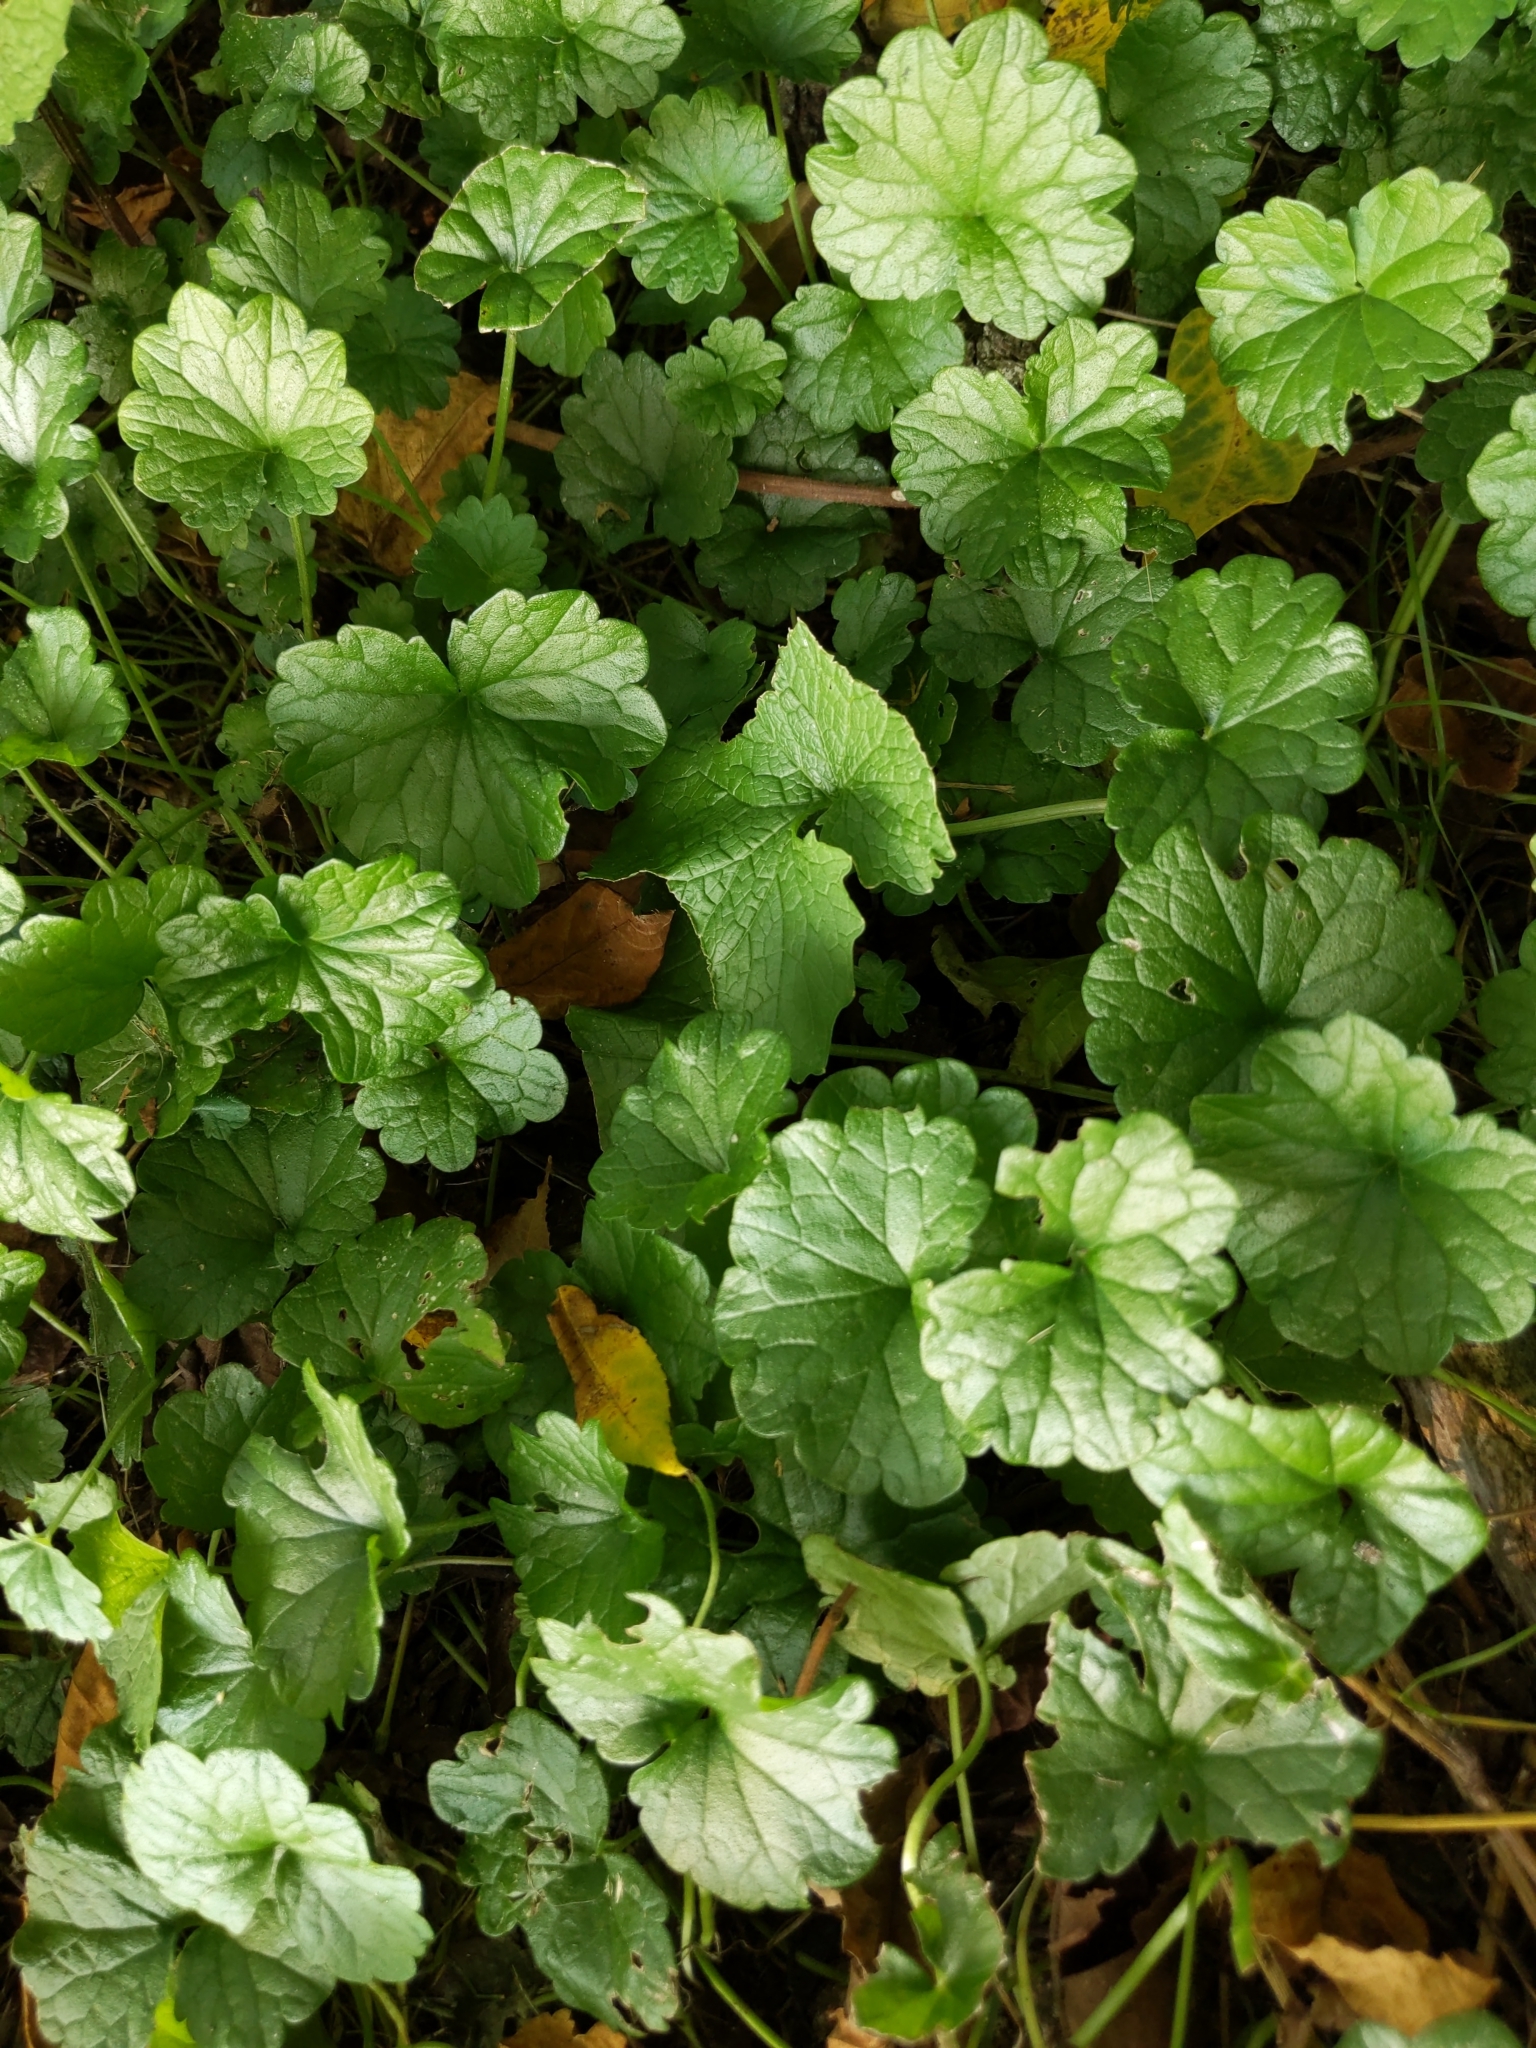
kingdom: Plantae
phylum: Tracheophyta
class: Magnoliopsida
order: Lamiales
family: Lamiaceae
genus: Glechoma
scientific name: Glechoma hederacea
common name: Ground ivy
